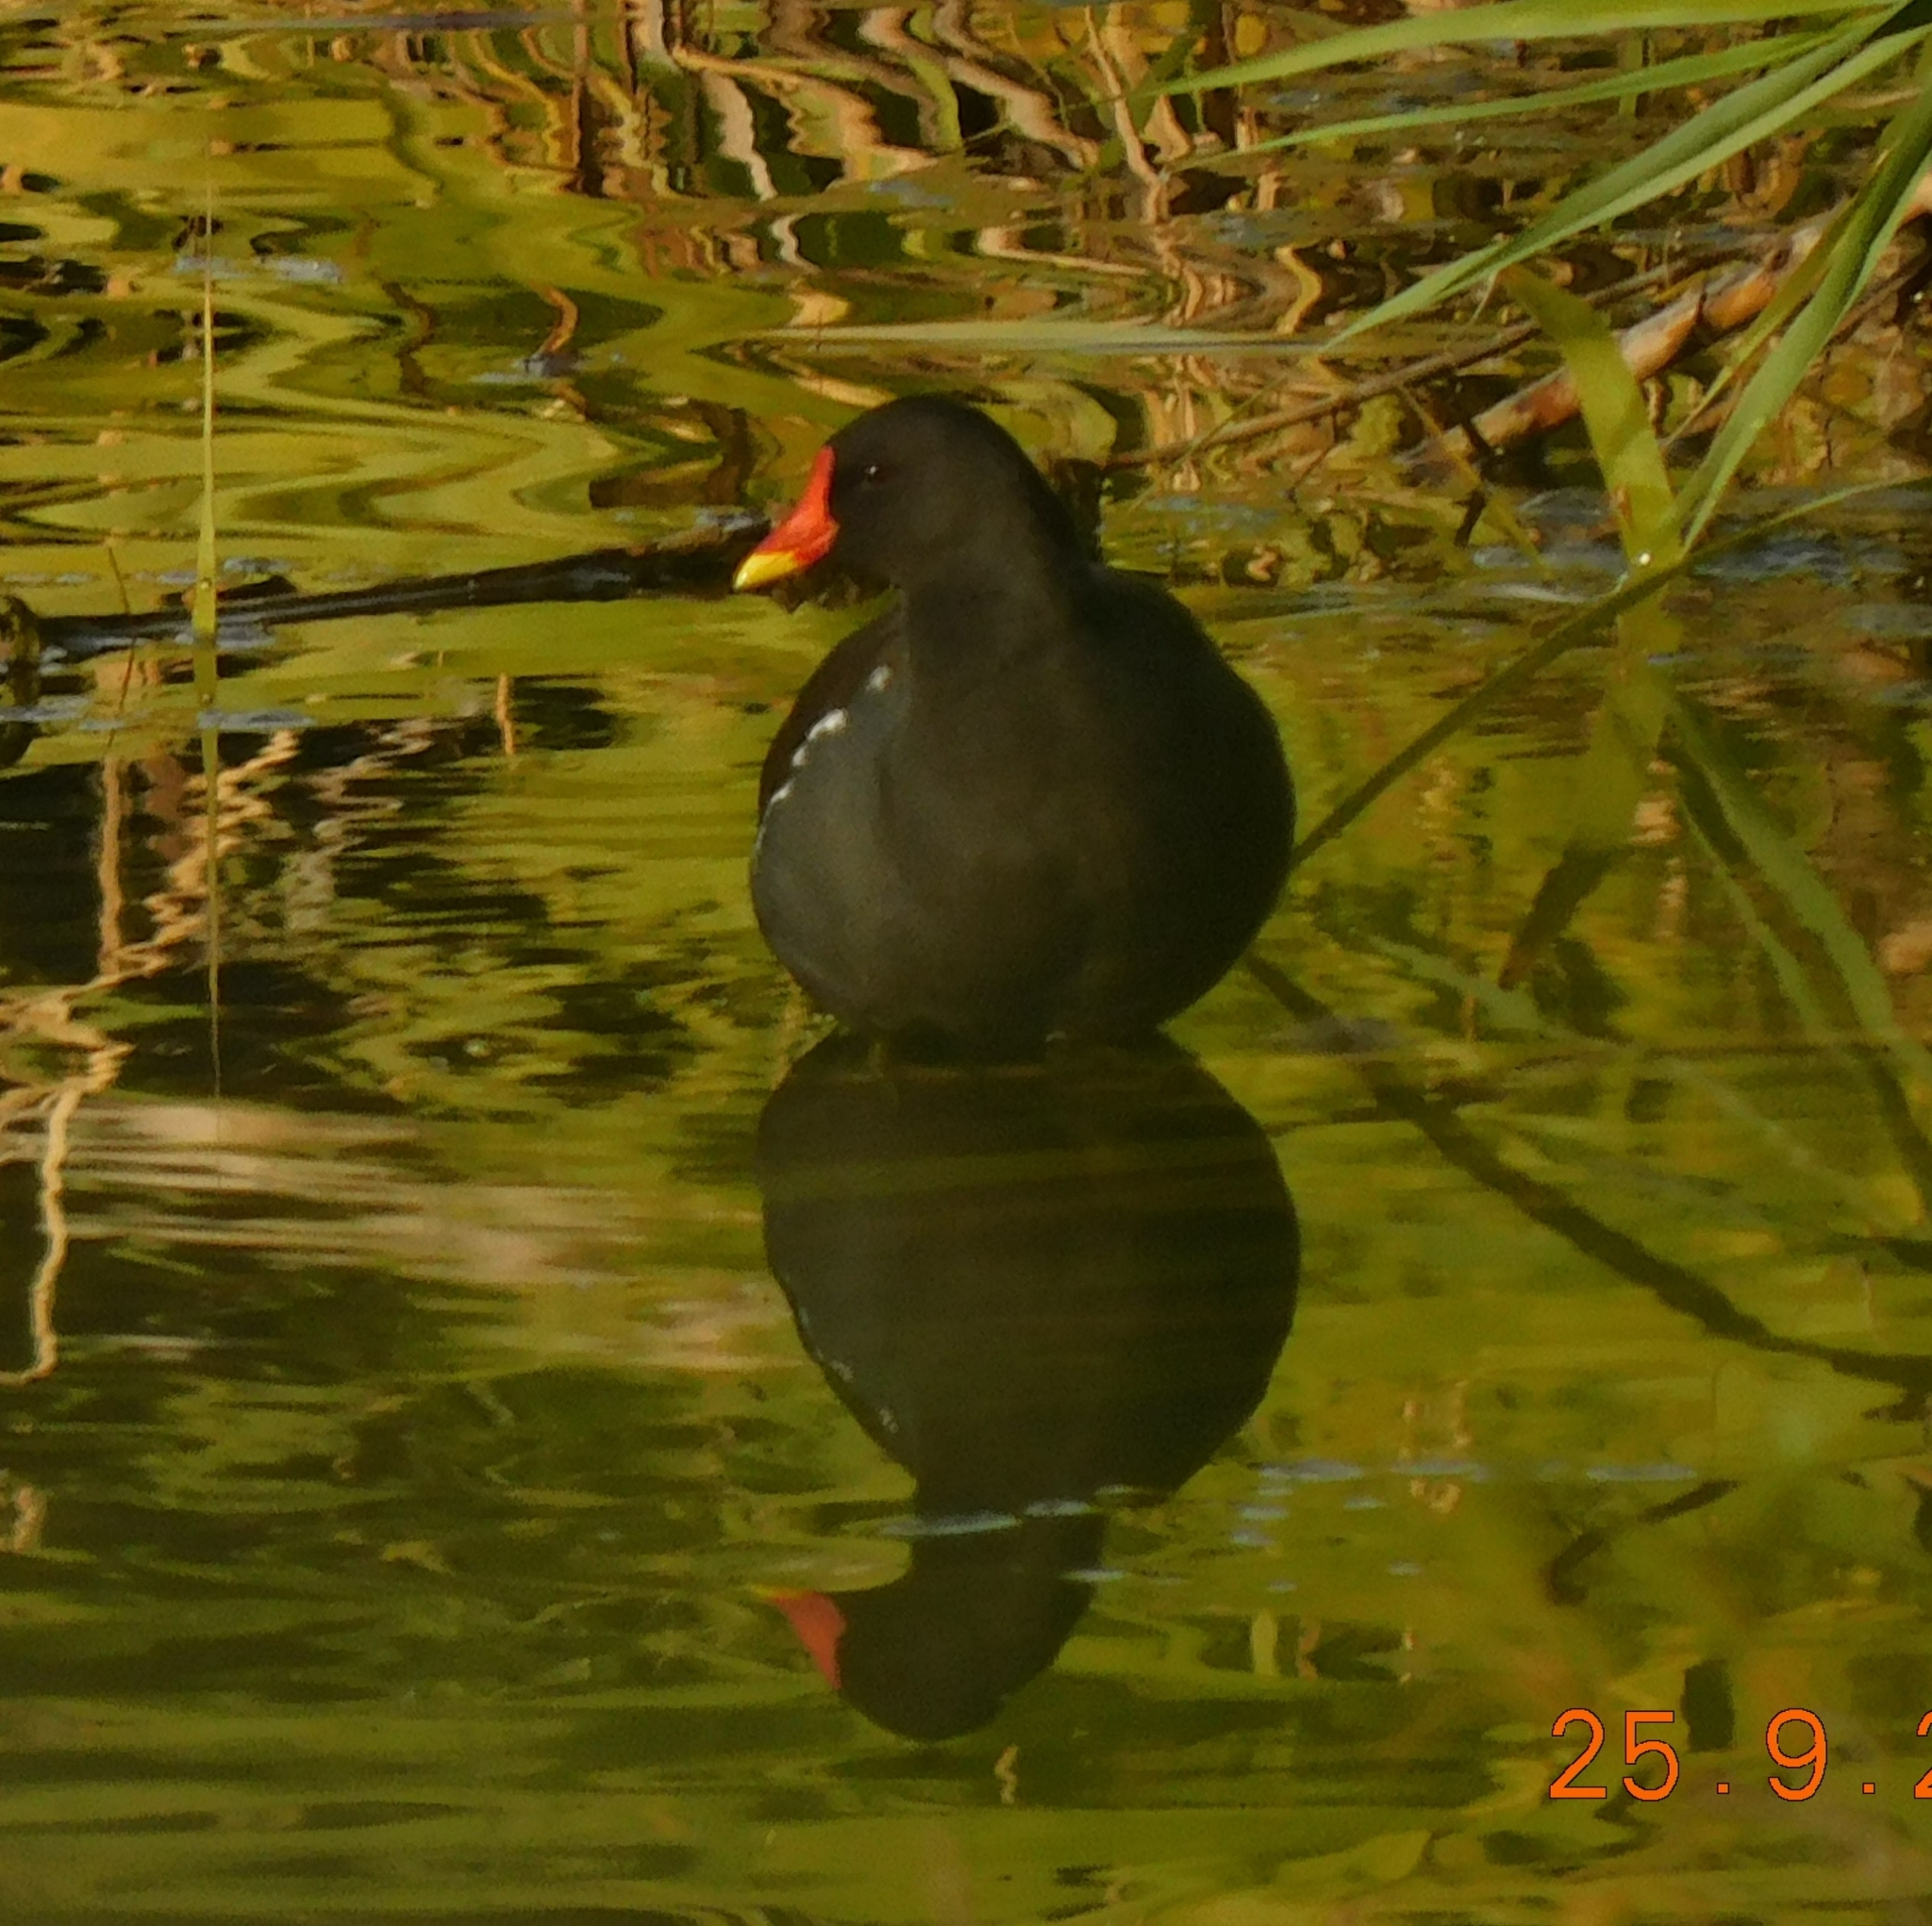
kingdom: Animalia
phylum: Chordata
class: Aves
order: Gruiformes
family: Rallidae
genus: Gallinula
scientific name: Gallinula chloropus
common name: Common moorhen
